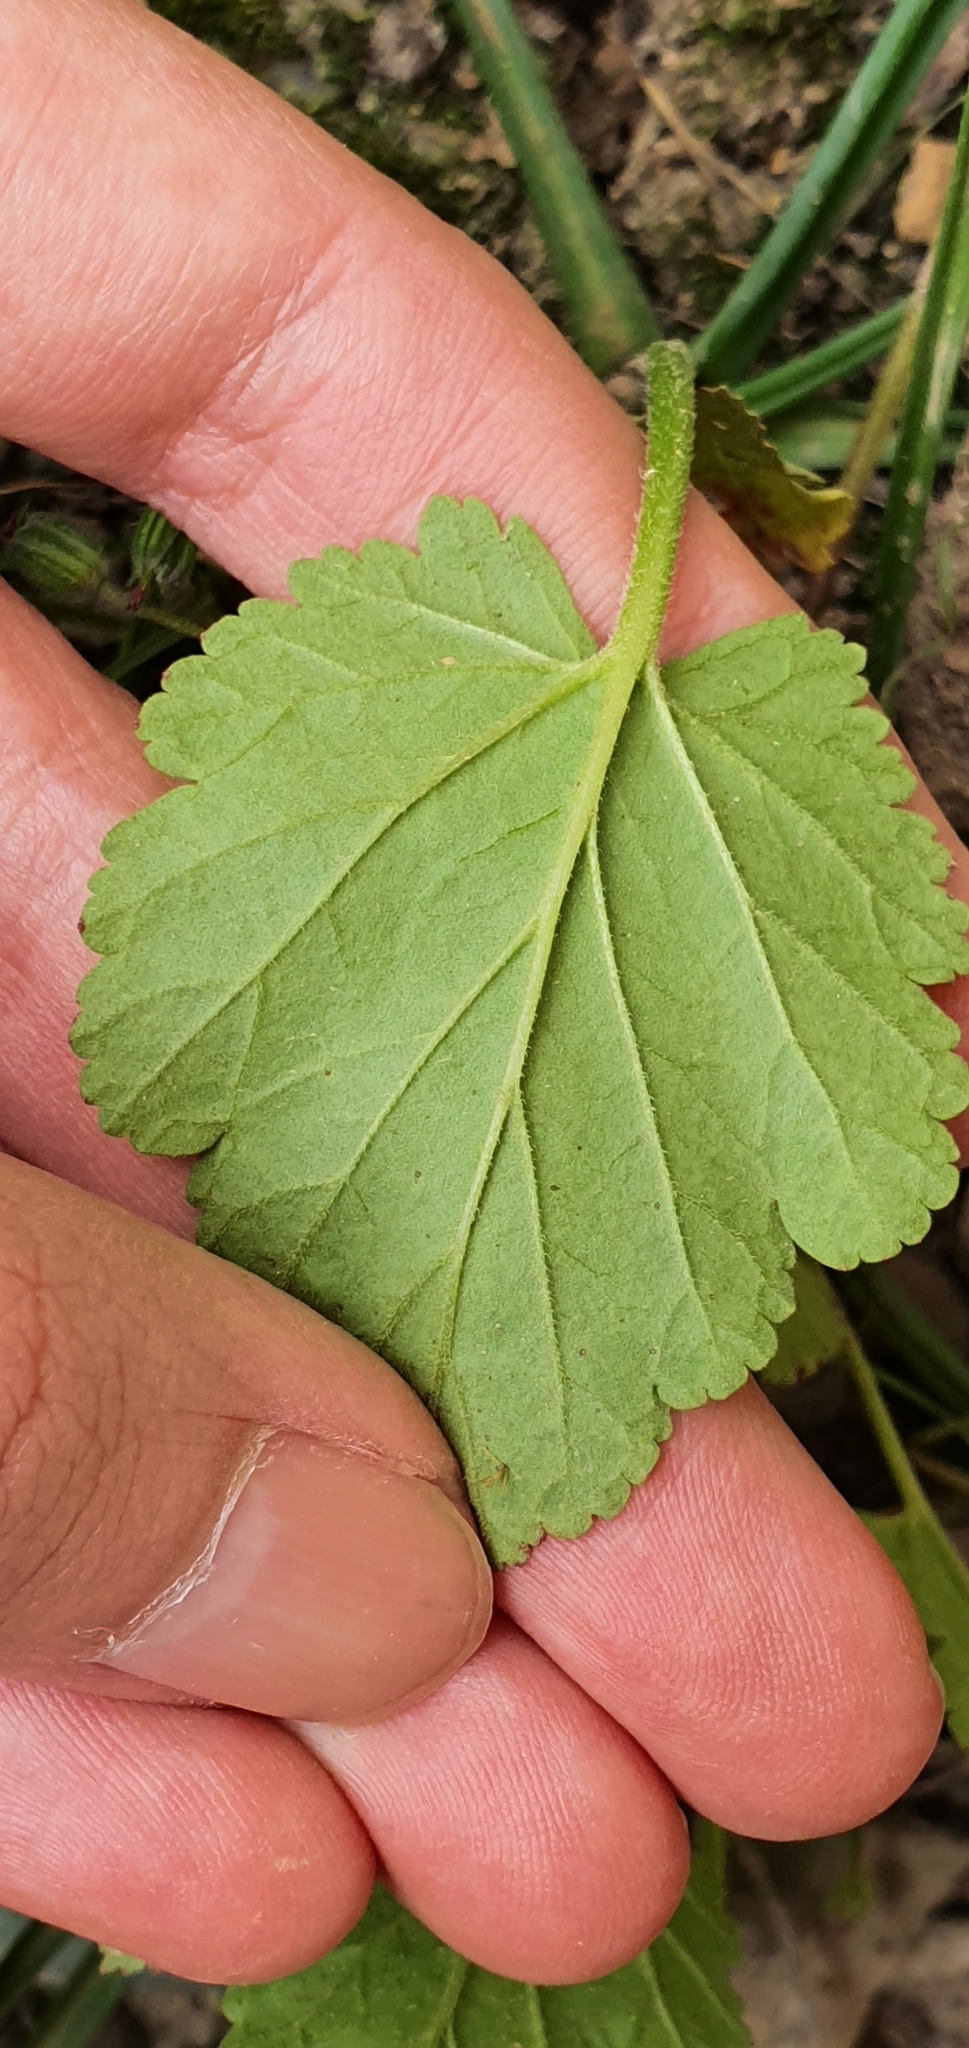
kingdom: Plantae
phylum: Tracheophyta
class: Magnoliopsida
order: Geraniales
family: Geraniaceae
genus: Erodium
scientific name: Erodium malacoides
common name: Soft stork's-bill
